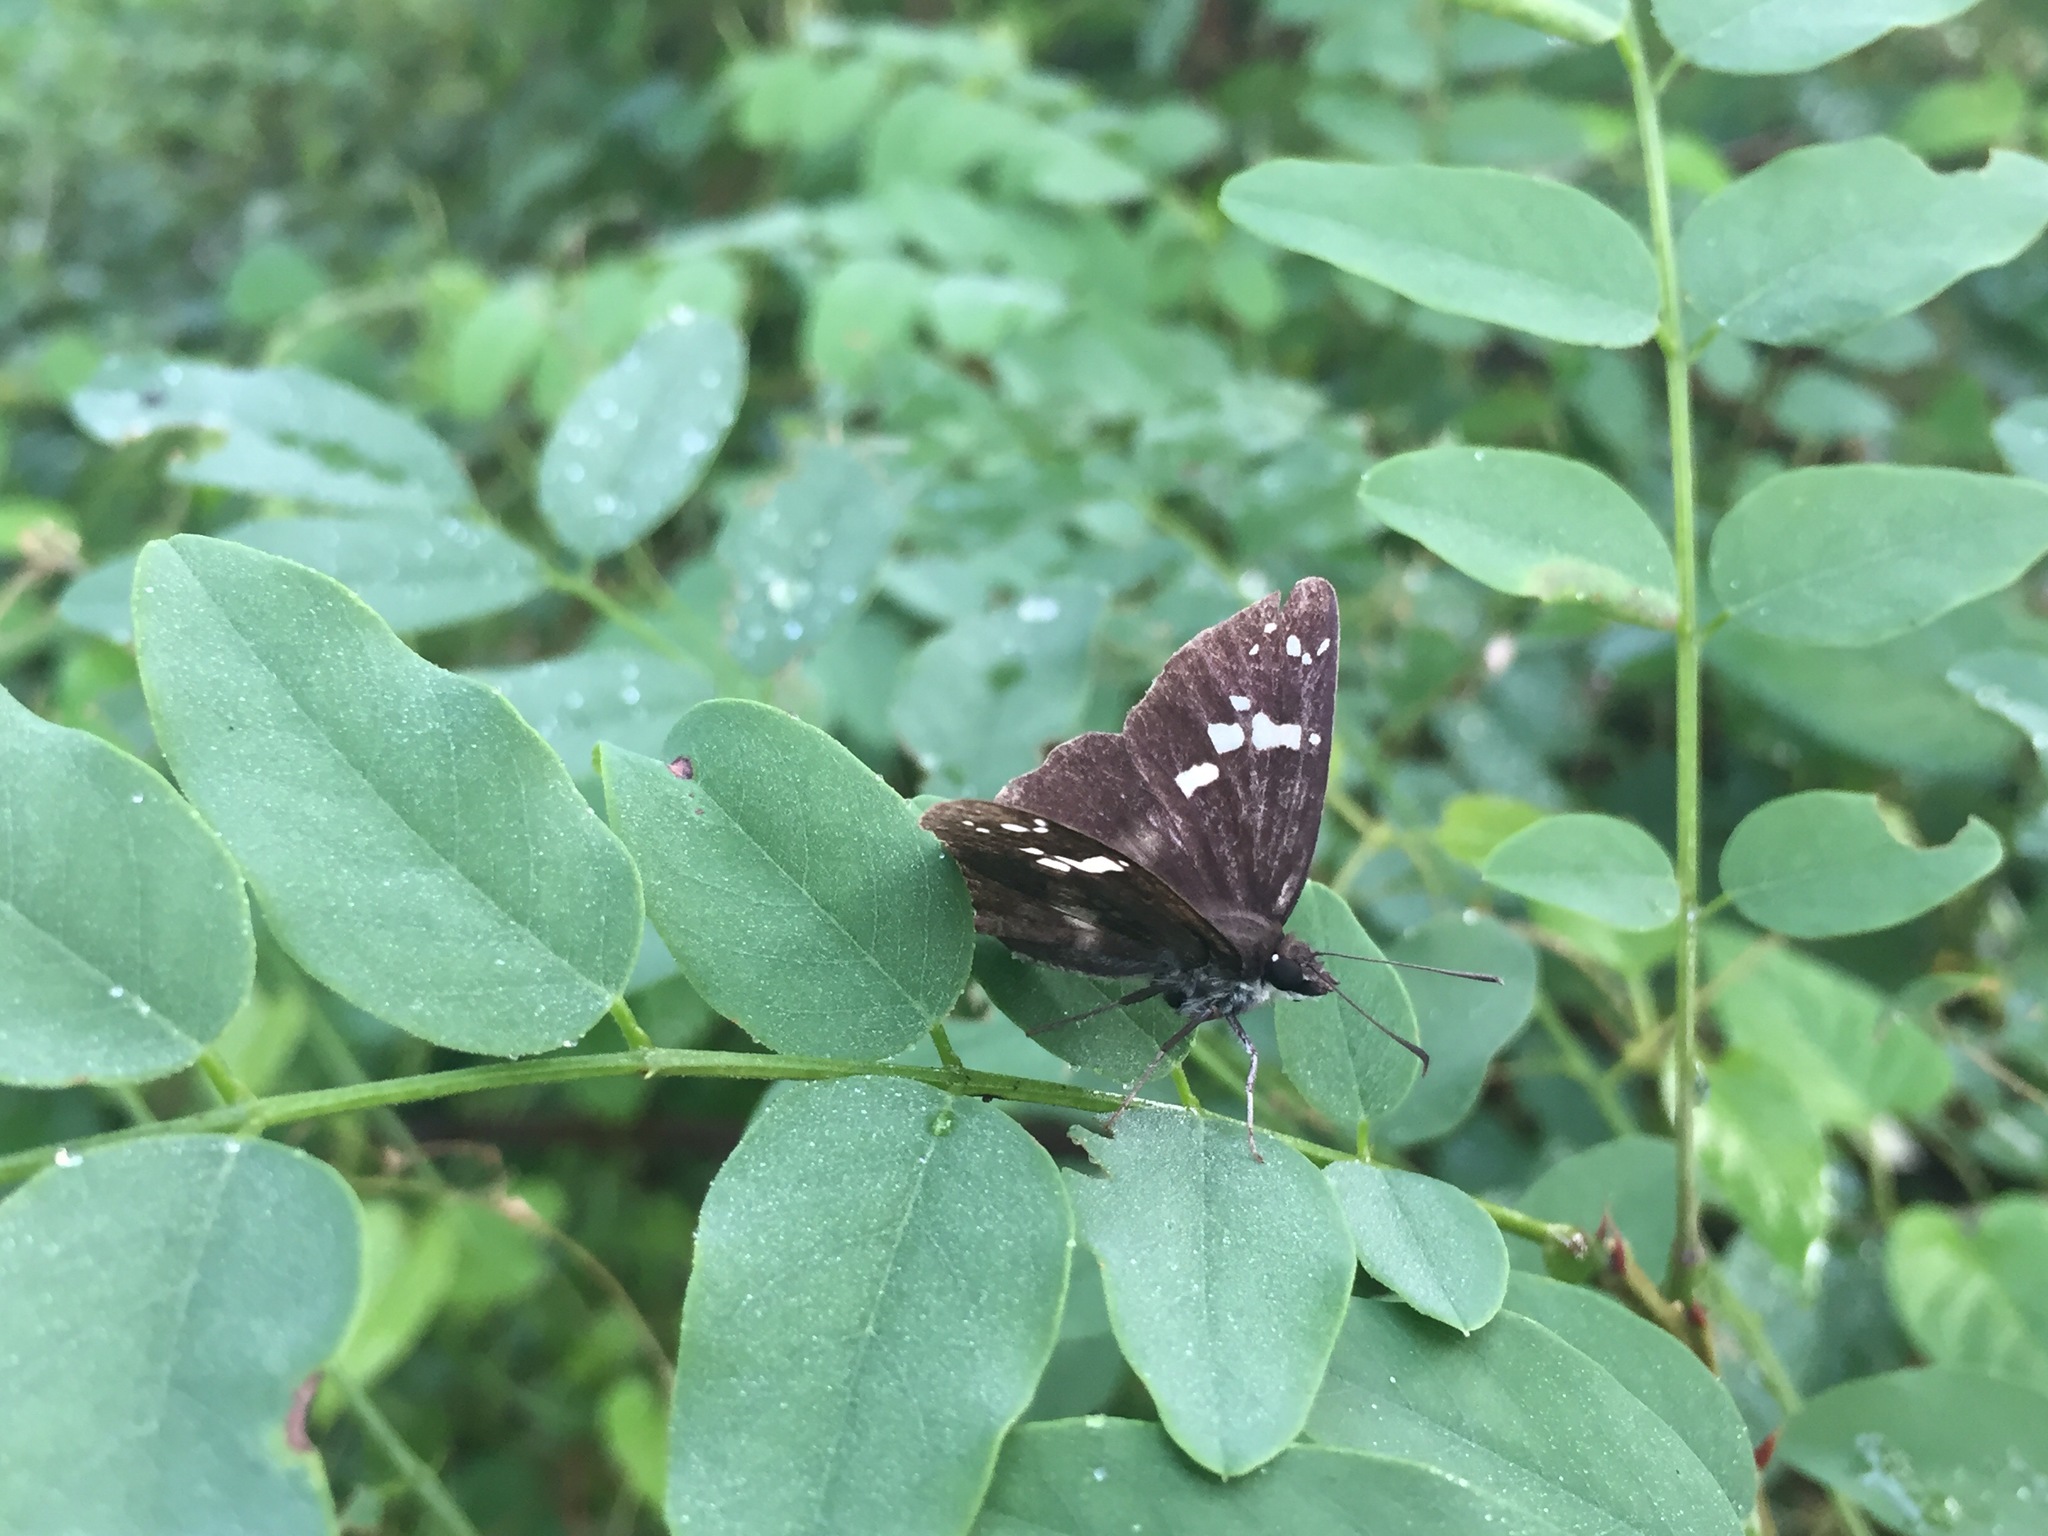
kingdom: Animalia
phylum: Arthropoda
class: Insecta
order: Lepidoptera
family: Hesperiidae
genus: Daimio
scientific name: Daimio tethys
